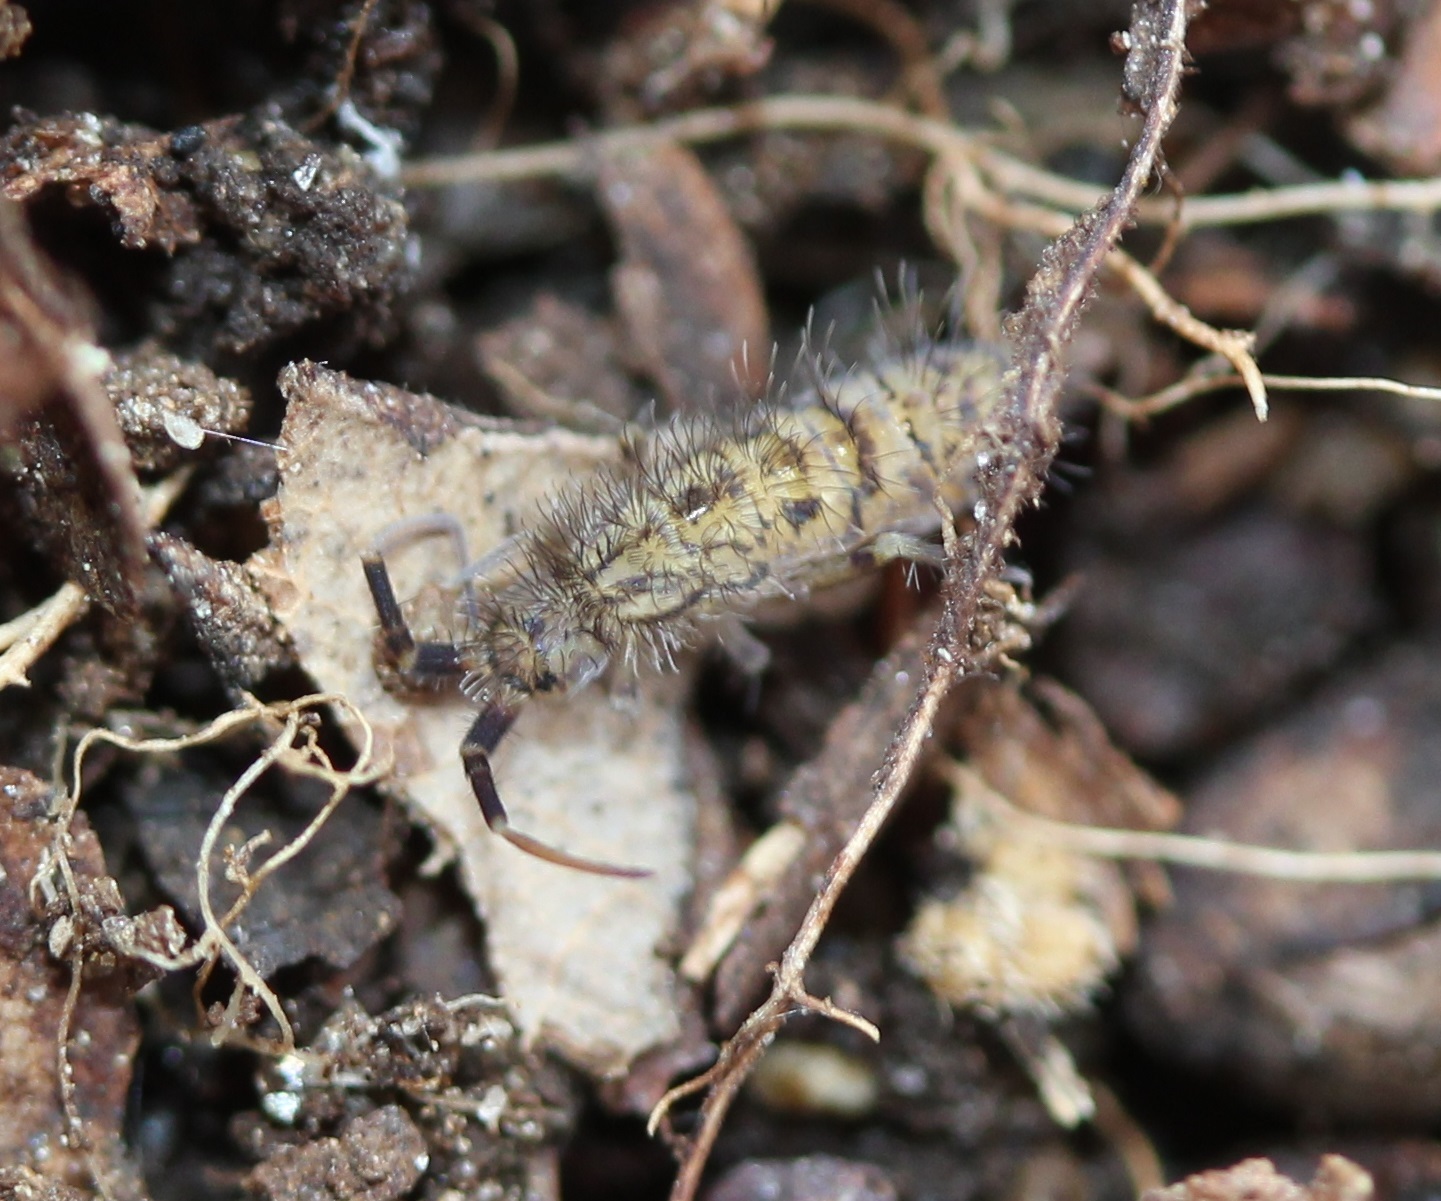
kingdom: Animalia
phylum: Arthropoda
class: Collembola
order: Entomobryomorpha
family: Orchesellidae
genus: Orchesella
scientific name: Orchesella villosa
